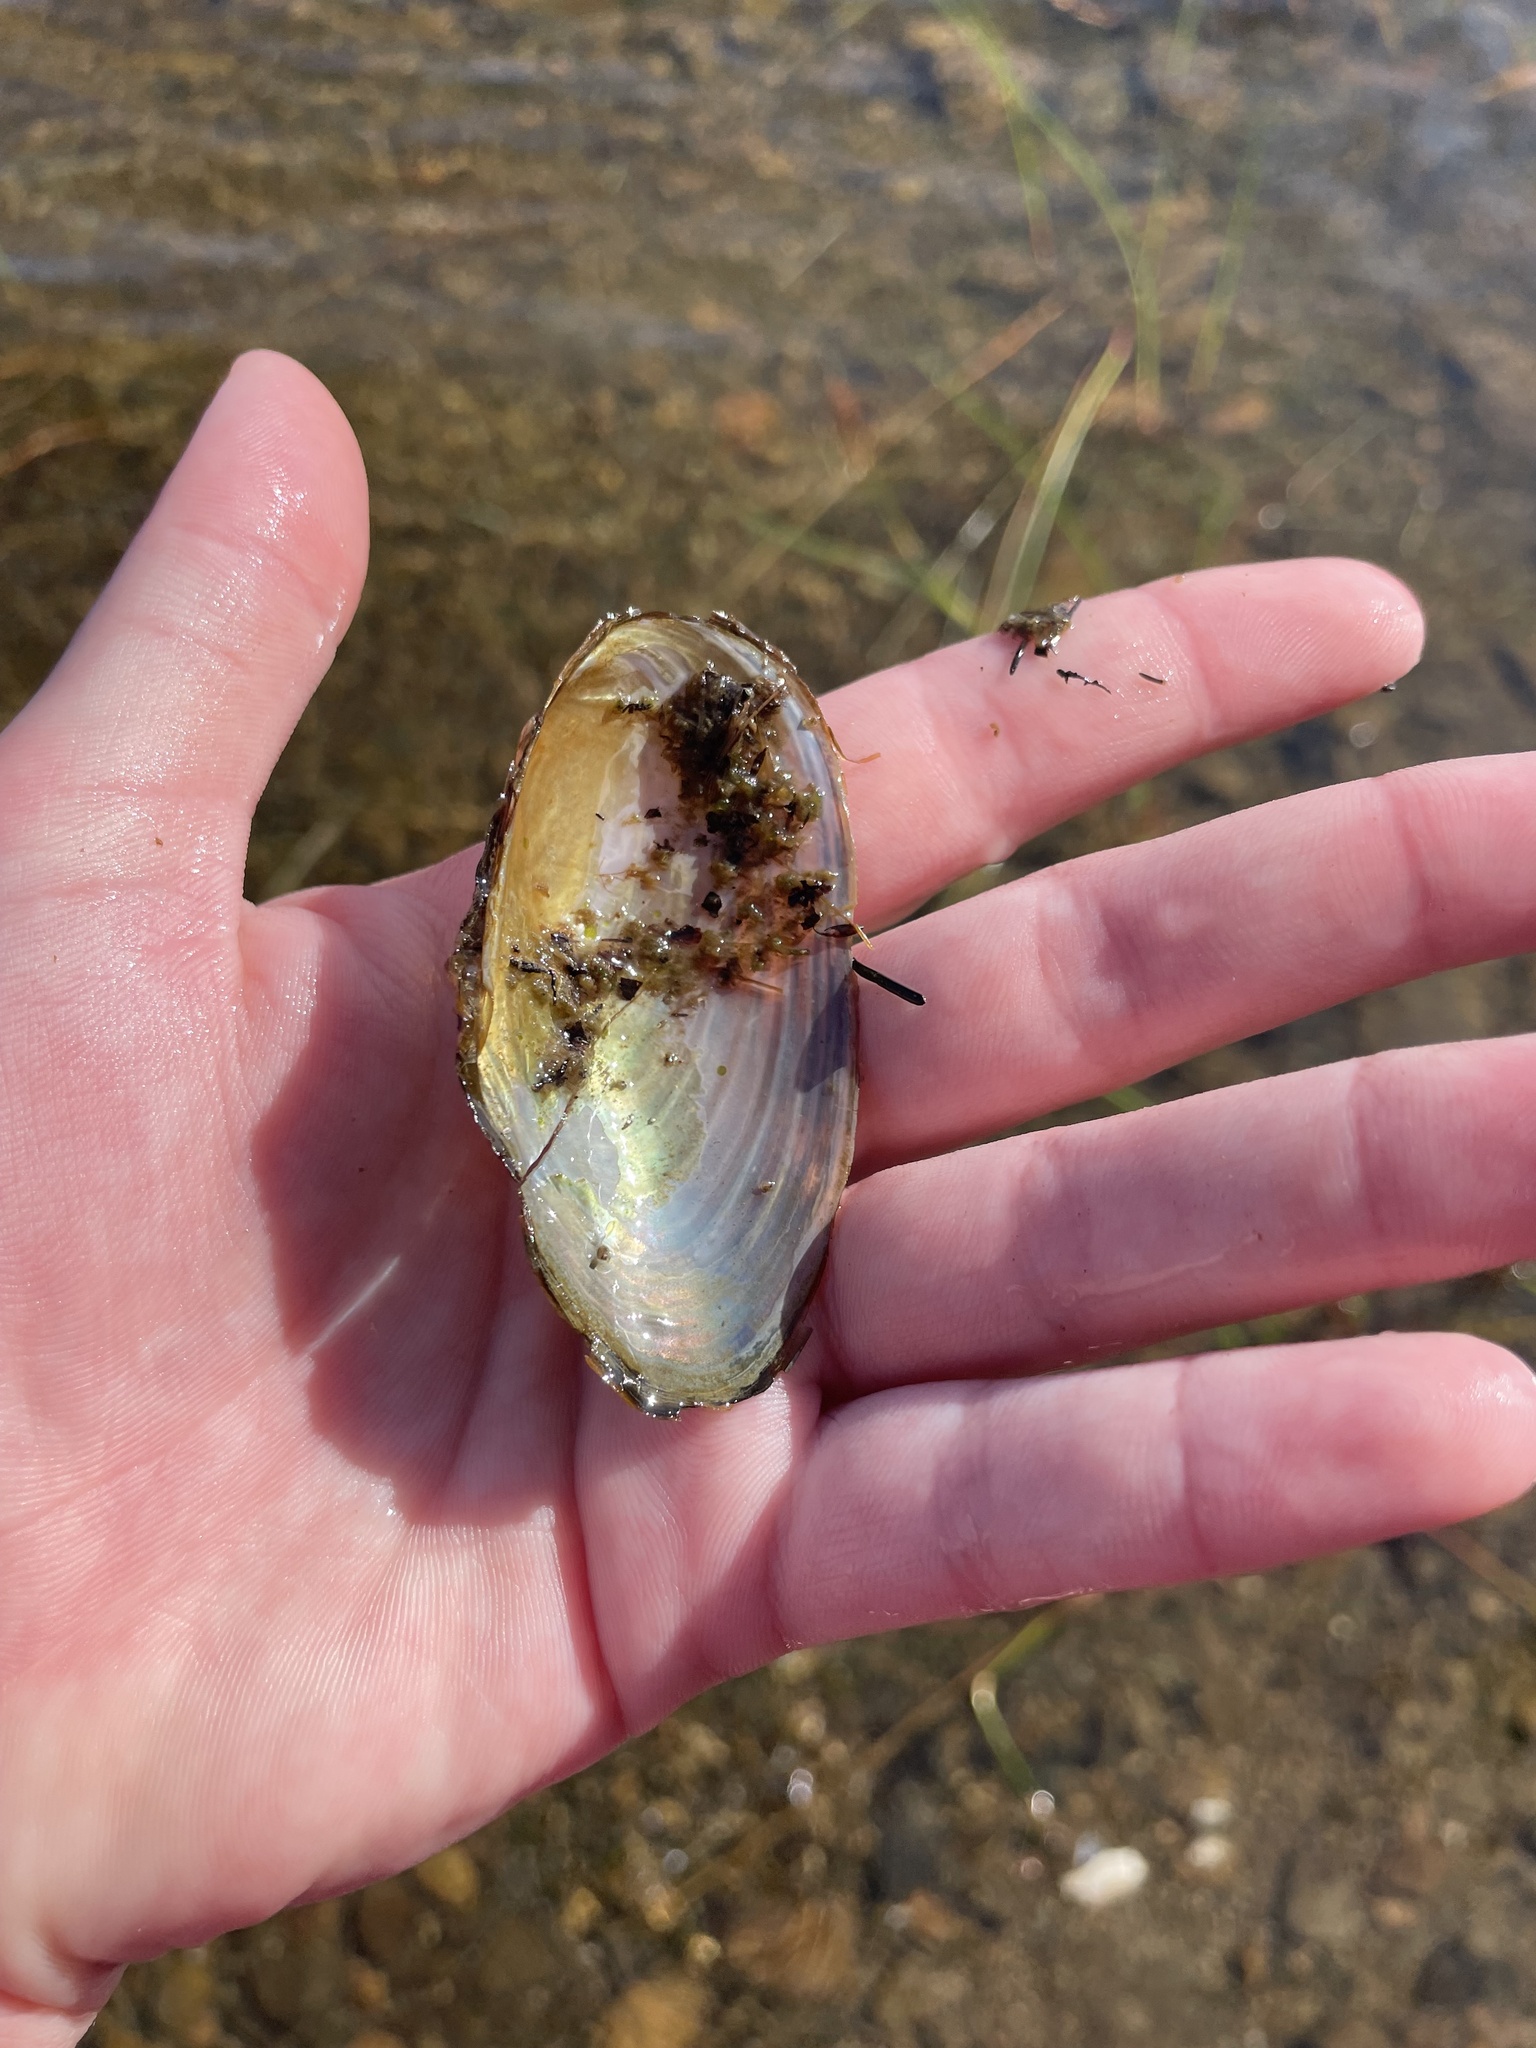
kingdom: Animalia
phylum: Mollusca
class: Bivalvia
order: Unionida
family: Unionidae
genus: Pyganodon
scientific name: Pyganodon cataracta
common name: Eastern floater
